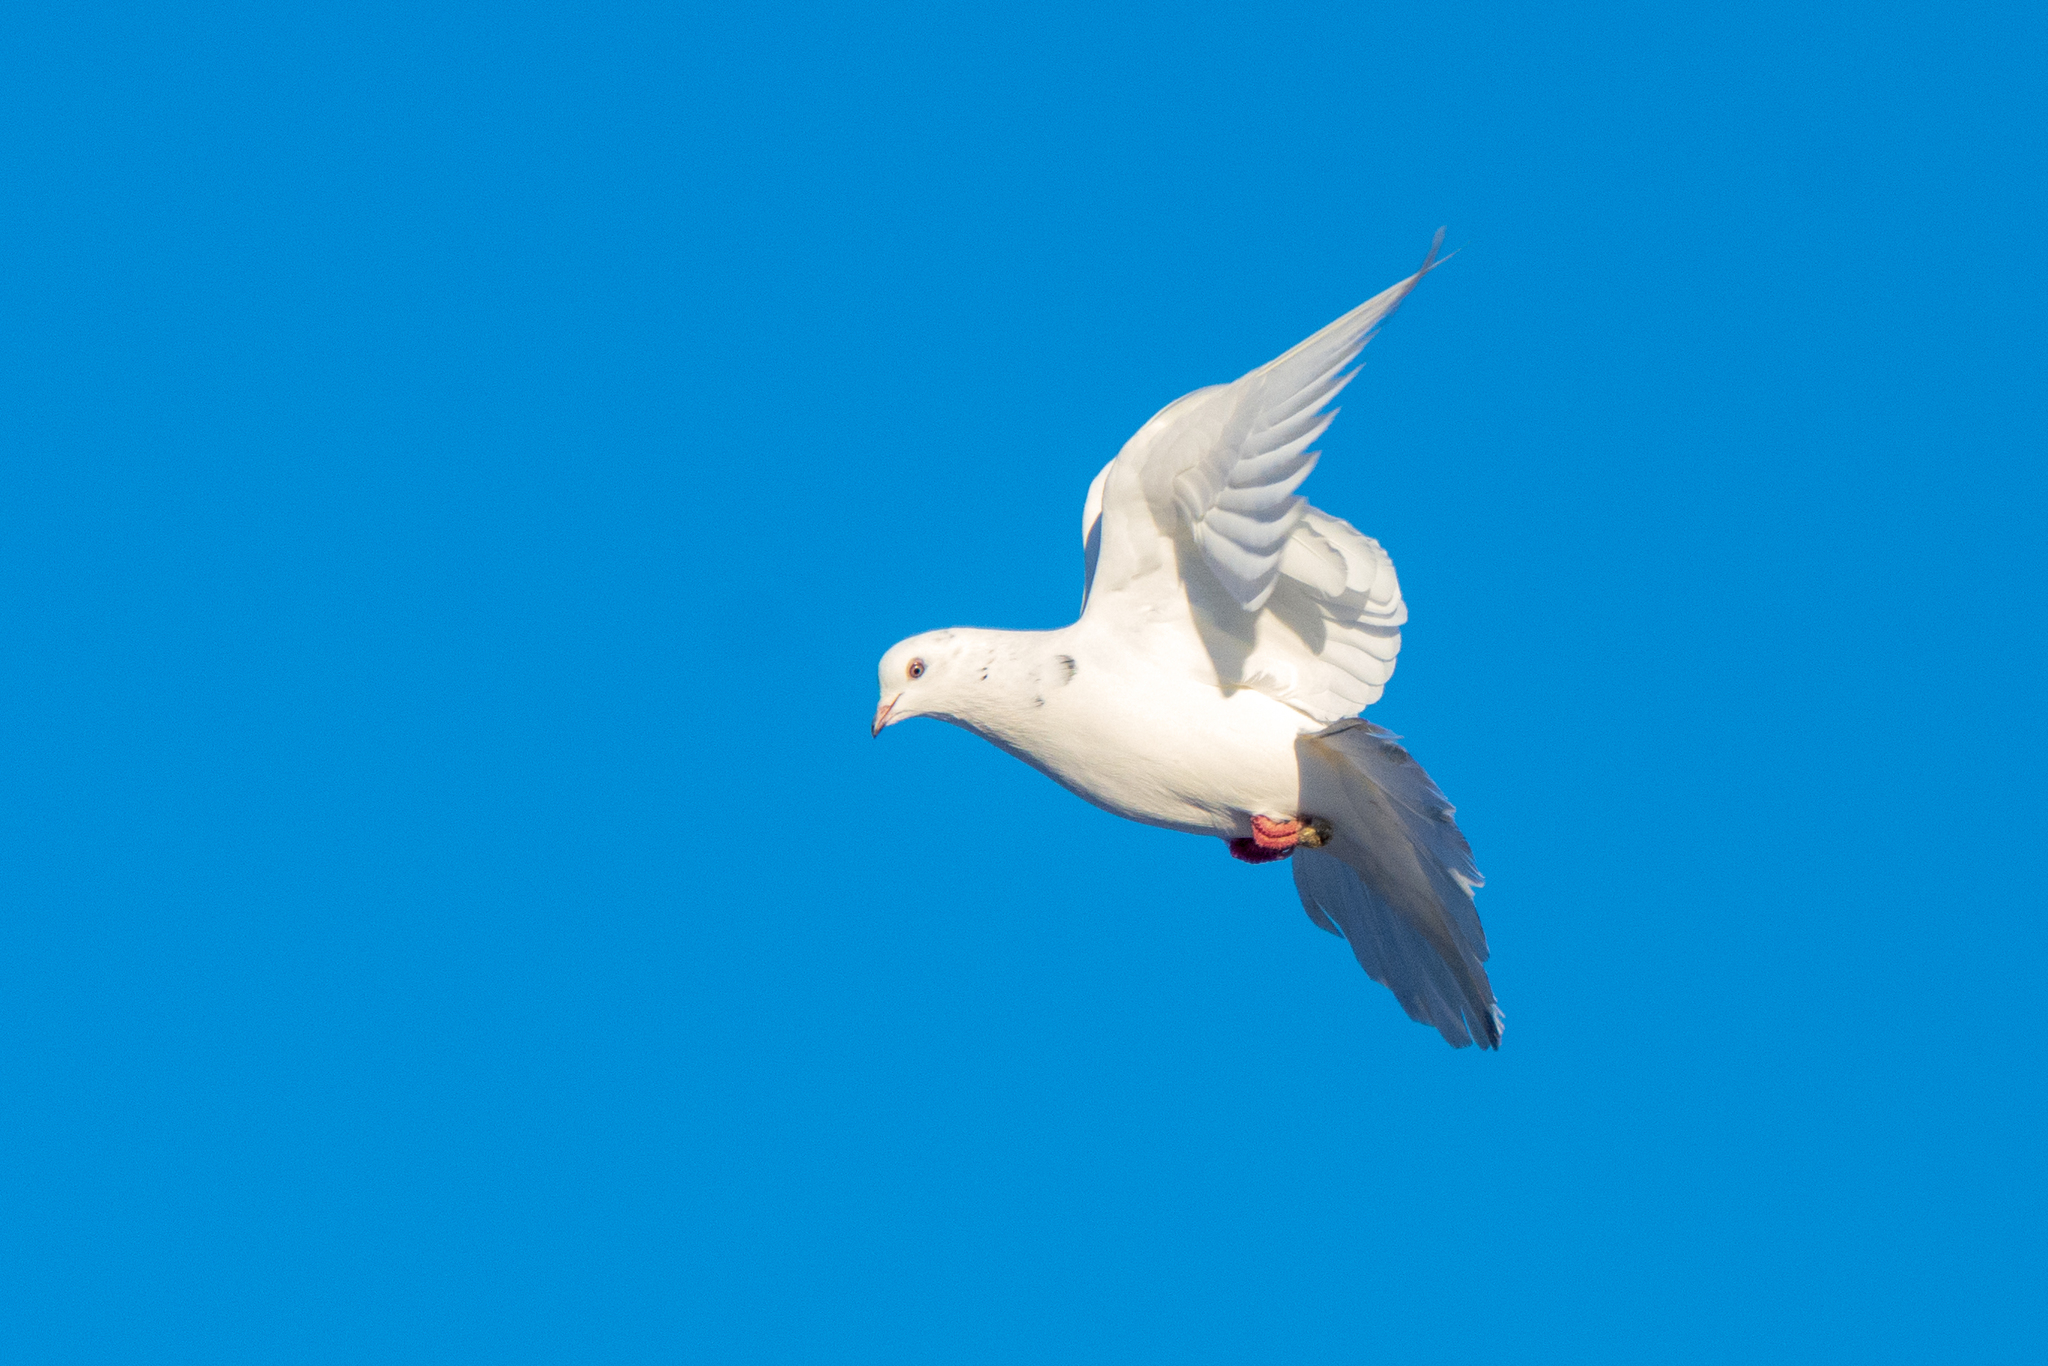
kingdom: Animalia
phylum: Chordata
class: Aves
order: Columbiformes
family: Columbidae
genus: Columba
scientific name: Columba livia
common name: Rock pigeon
